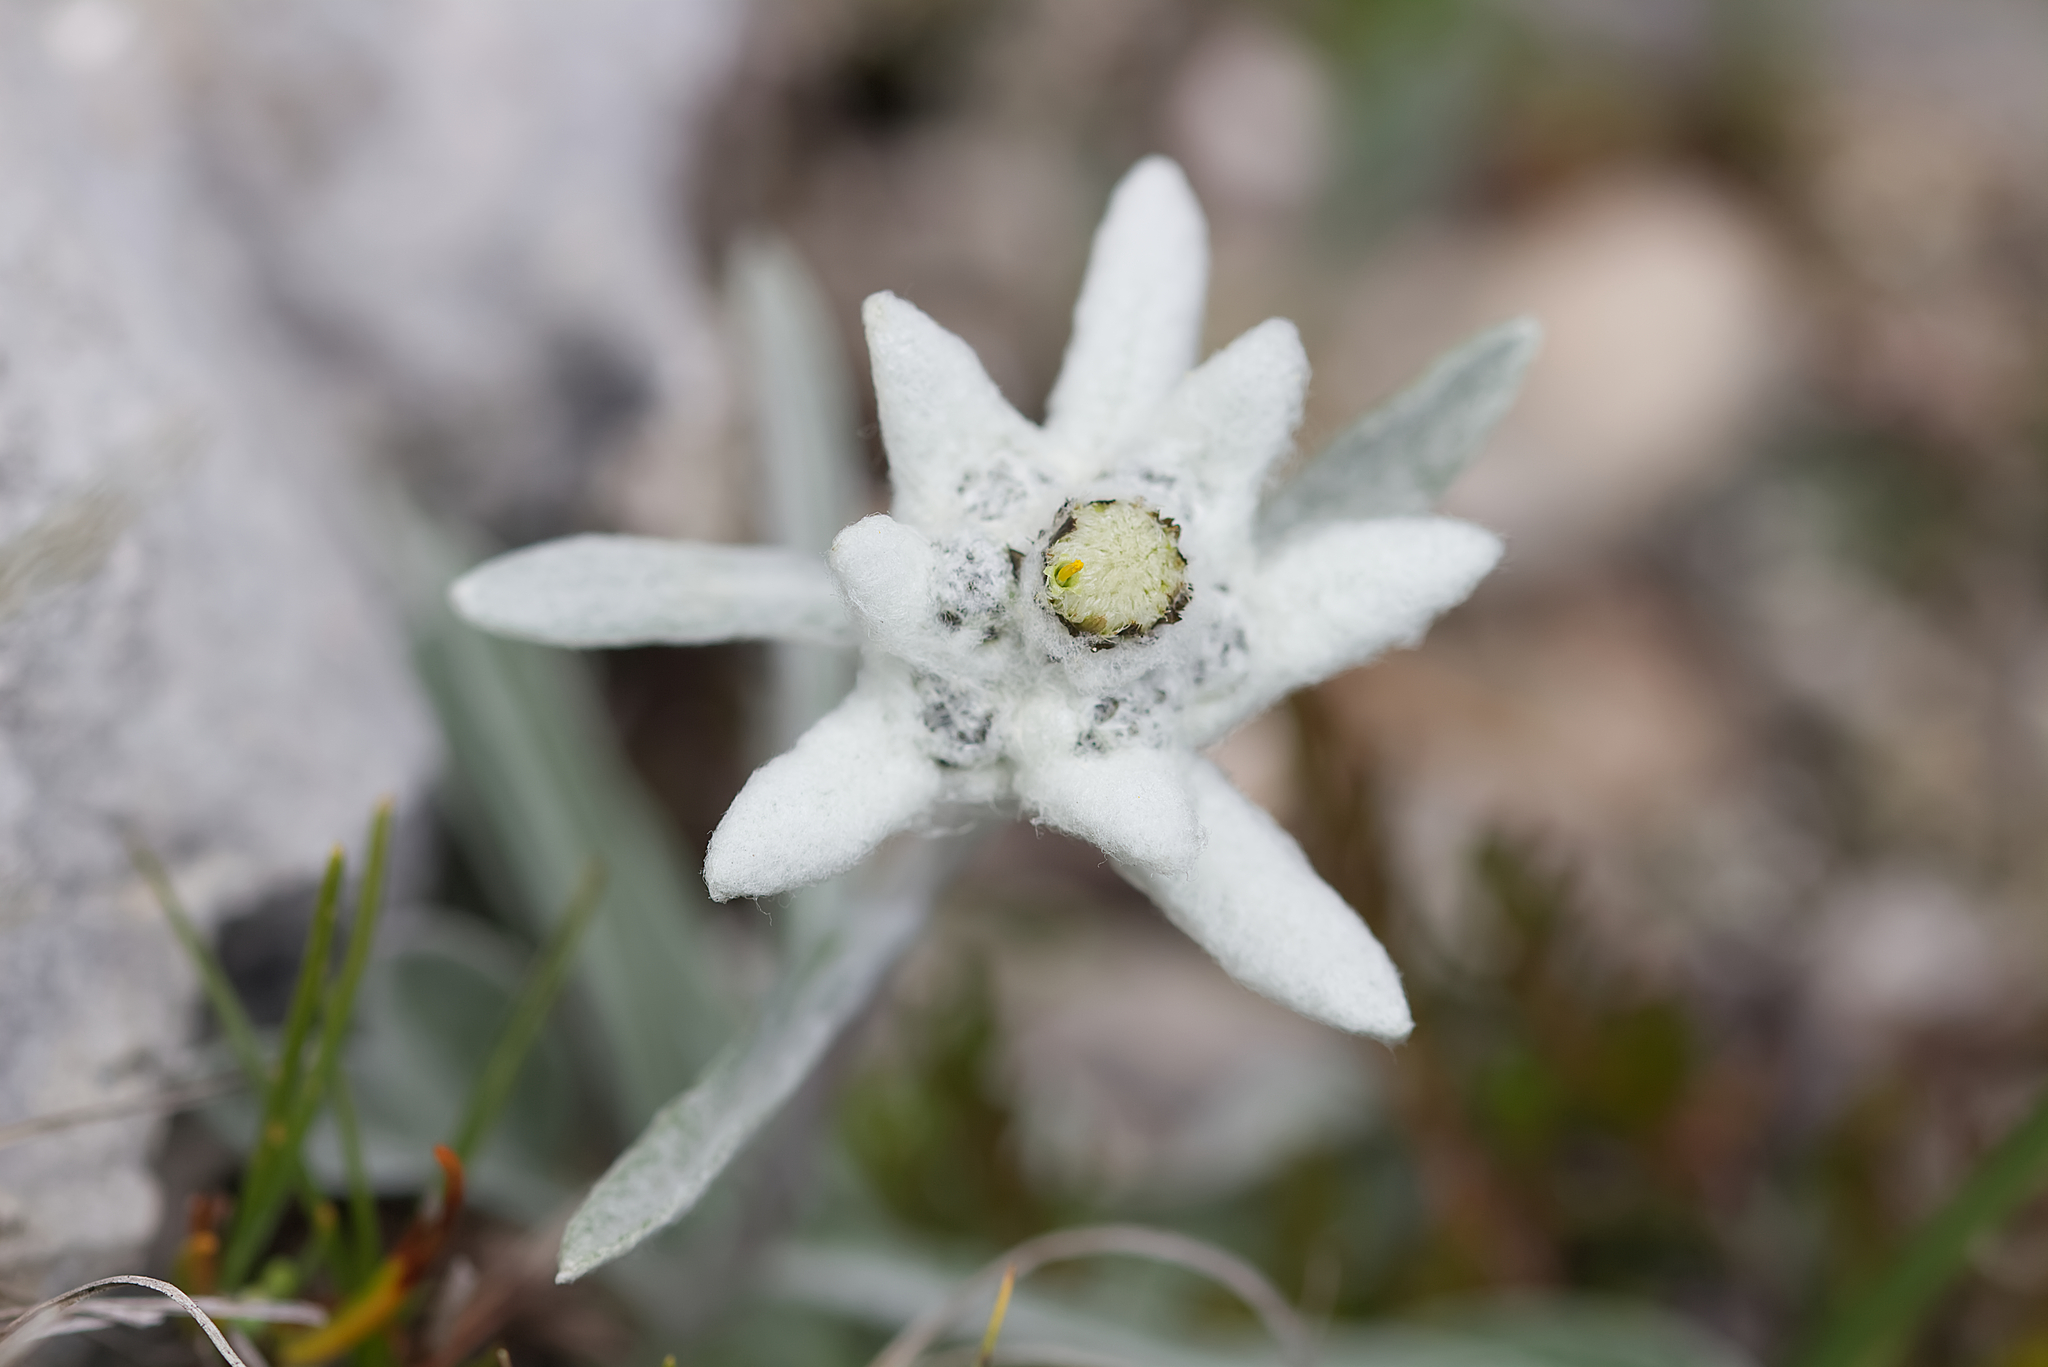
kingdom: Plantae
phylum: Tracheophyta
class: Magnoliopsida
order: Asterales
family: Asteraceae
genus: Leontopodium
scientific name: Leontopodium nivale
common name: Edelweiss
